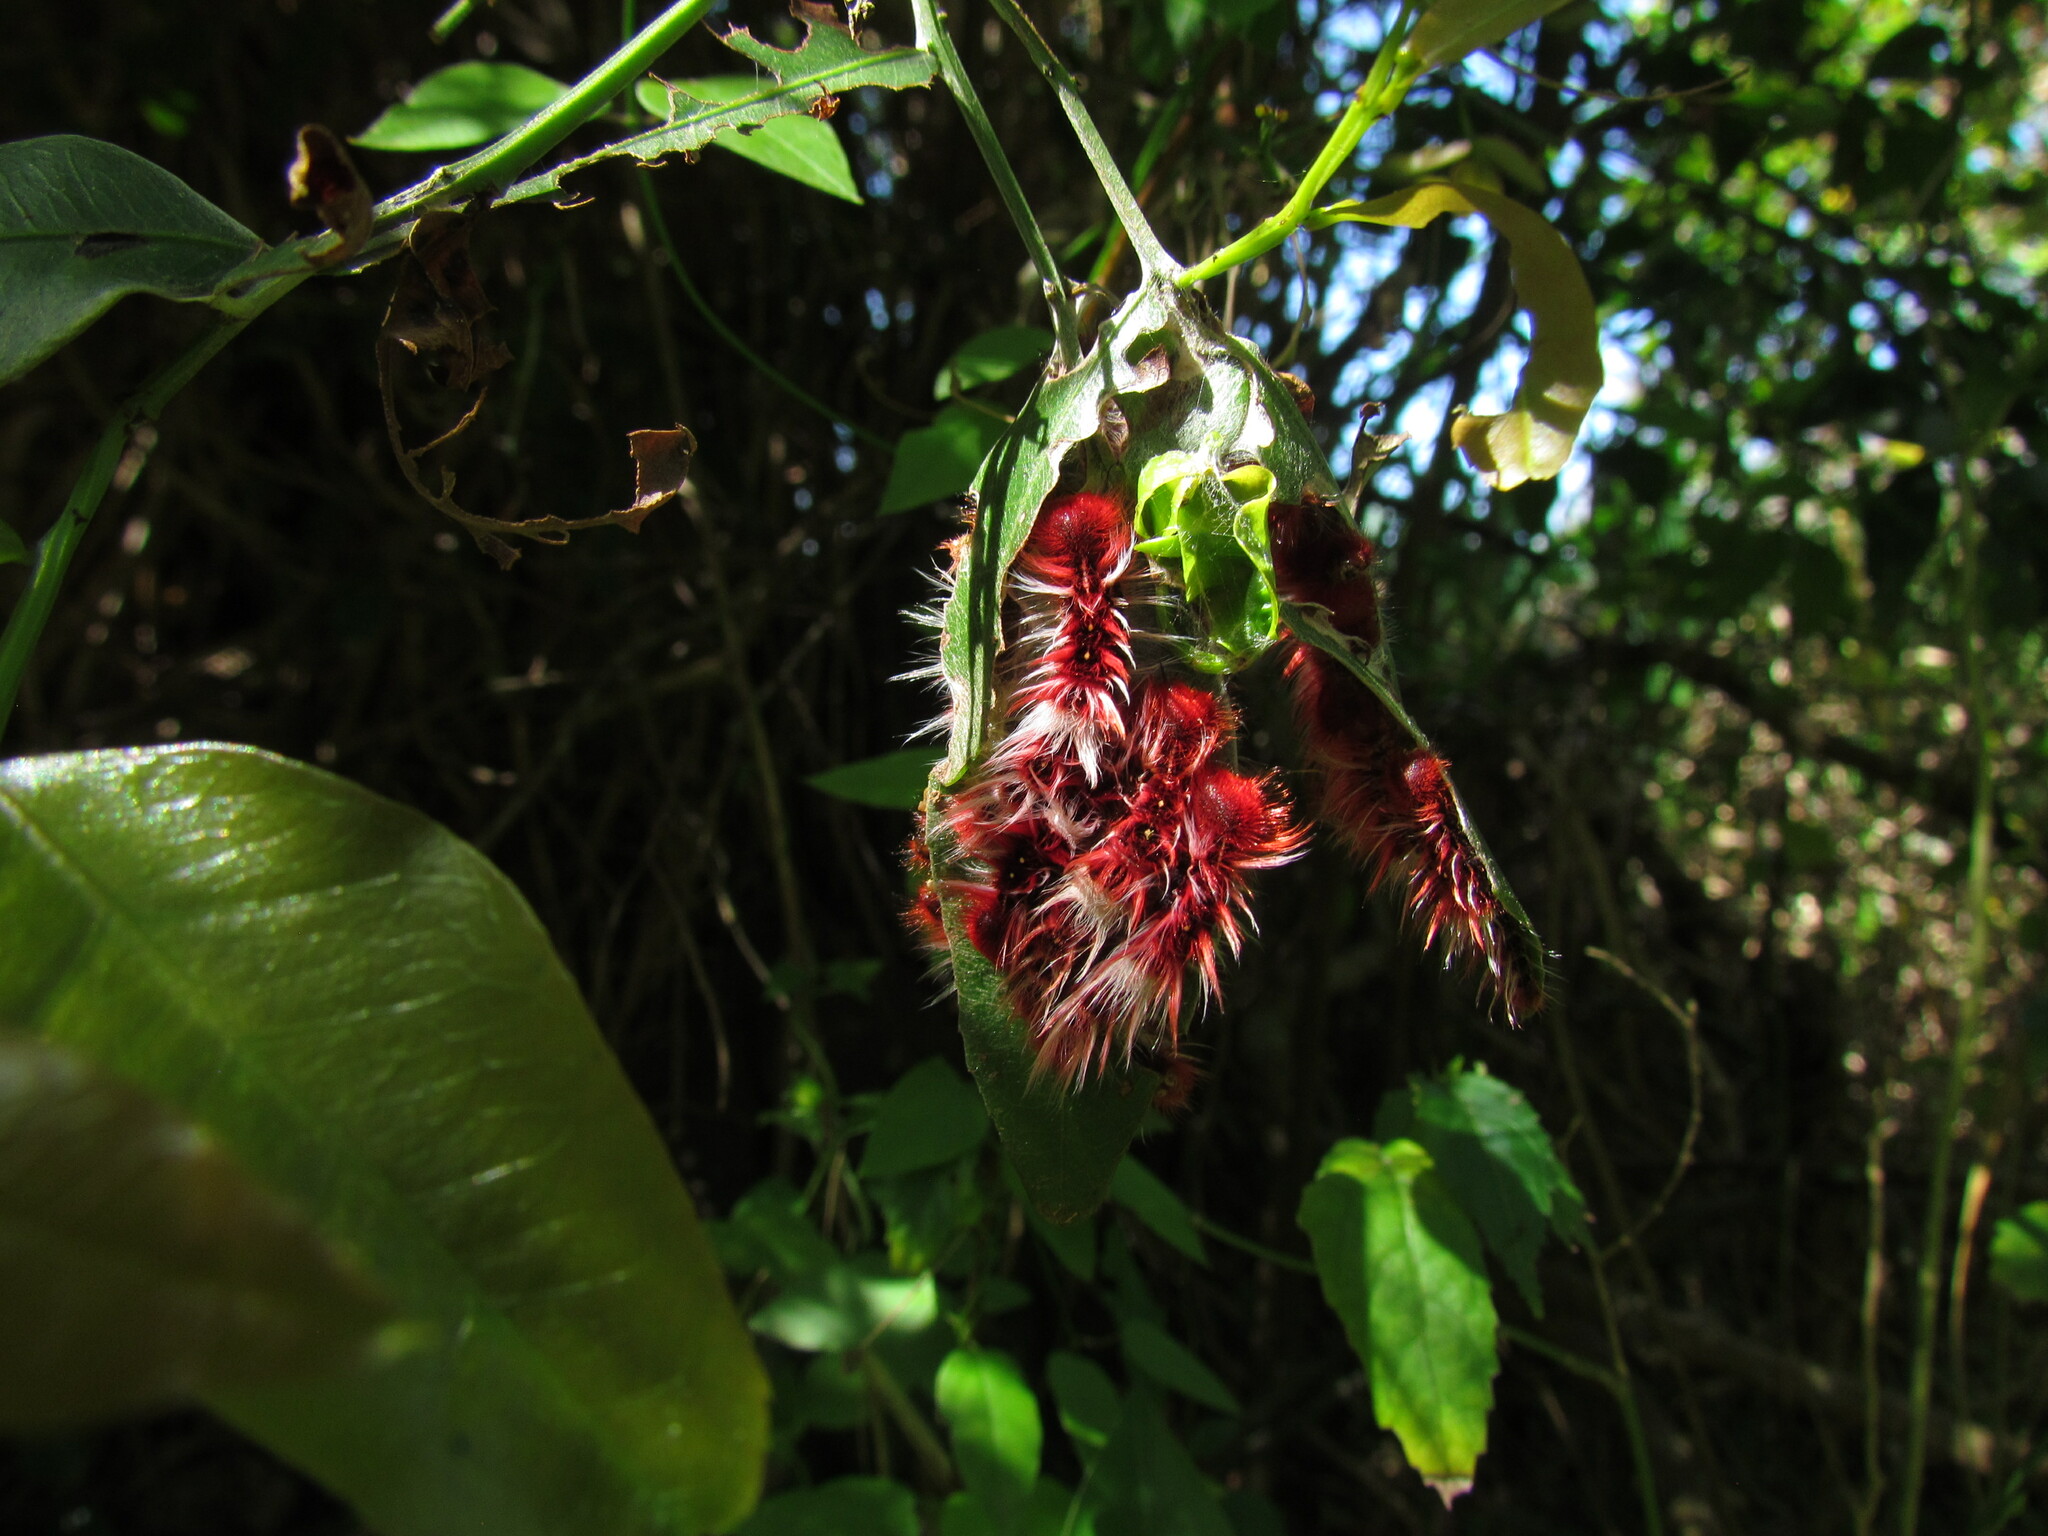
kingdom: Animalia
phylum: Arthropoda
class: Insecta
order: Lepidoptera
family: Nymphalidae
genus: Morpho
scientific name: Morpho epistrophus
